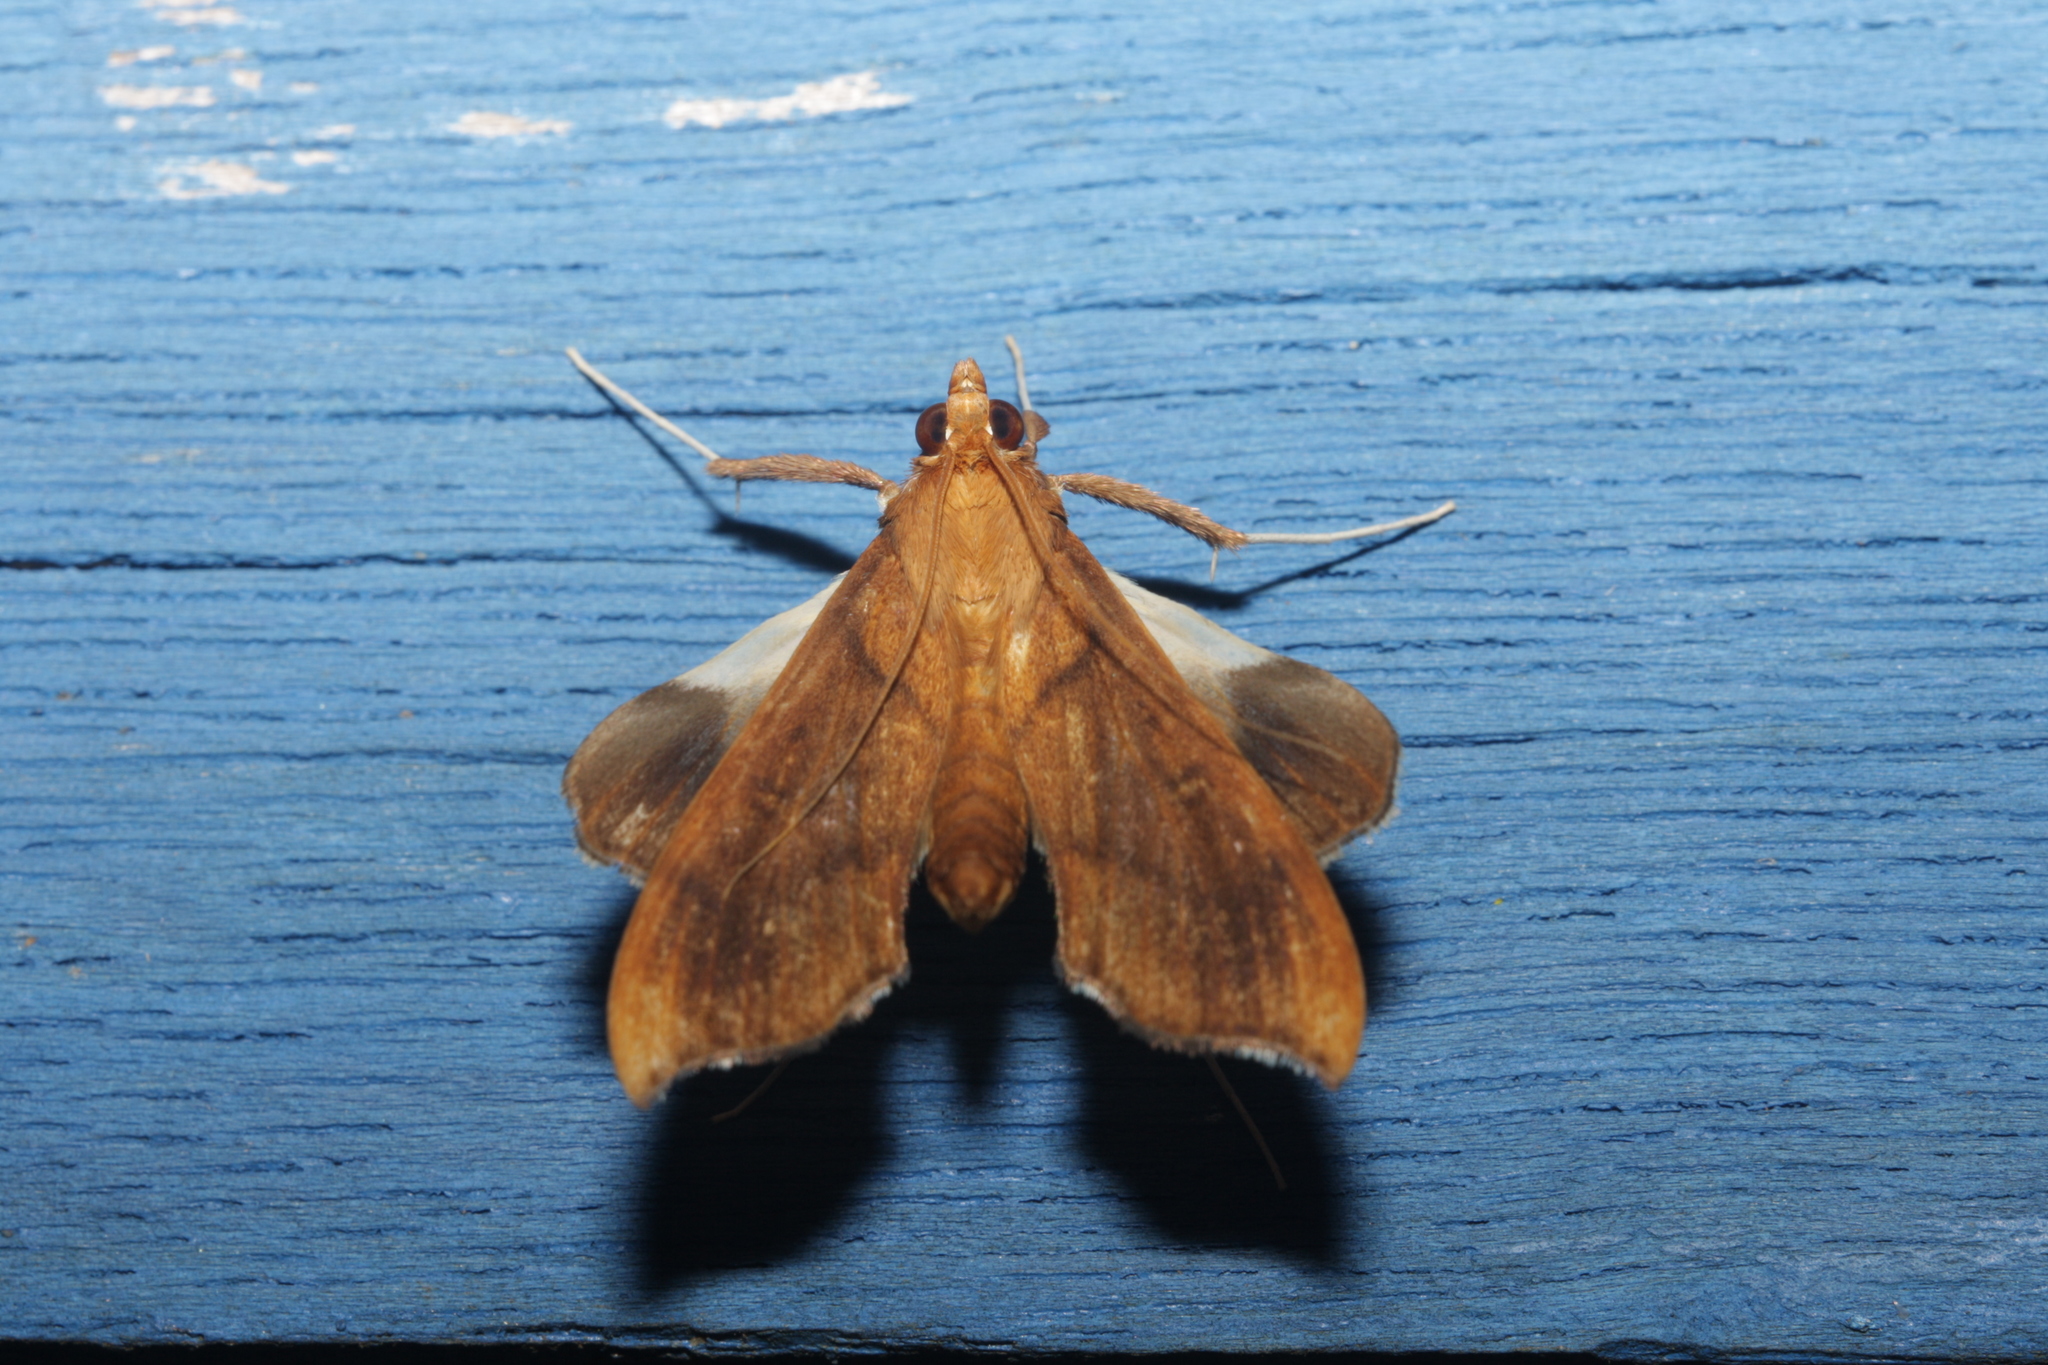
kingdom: Animalia
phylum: Arthropoda
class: Insecta
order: Lepidoptera
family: Crambidae
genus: Anarmodia
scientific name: Anarmodia nebulosalis
